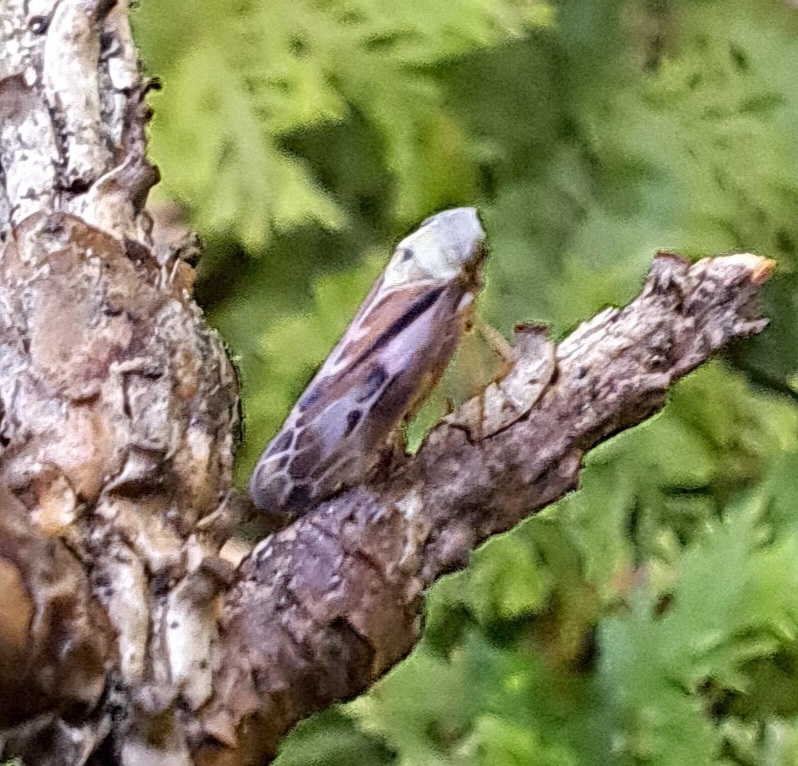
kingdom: Animalia
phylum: Arthropoda
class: Insecta
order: Hemiptera
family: Cicadellidae
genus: Pithyotettix
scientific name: Pithyotettix abietinus
